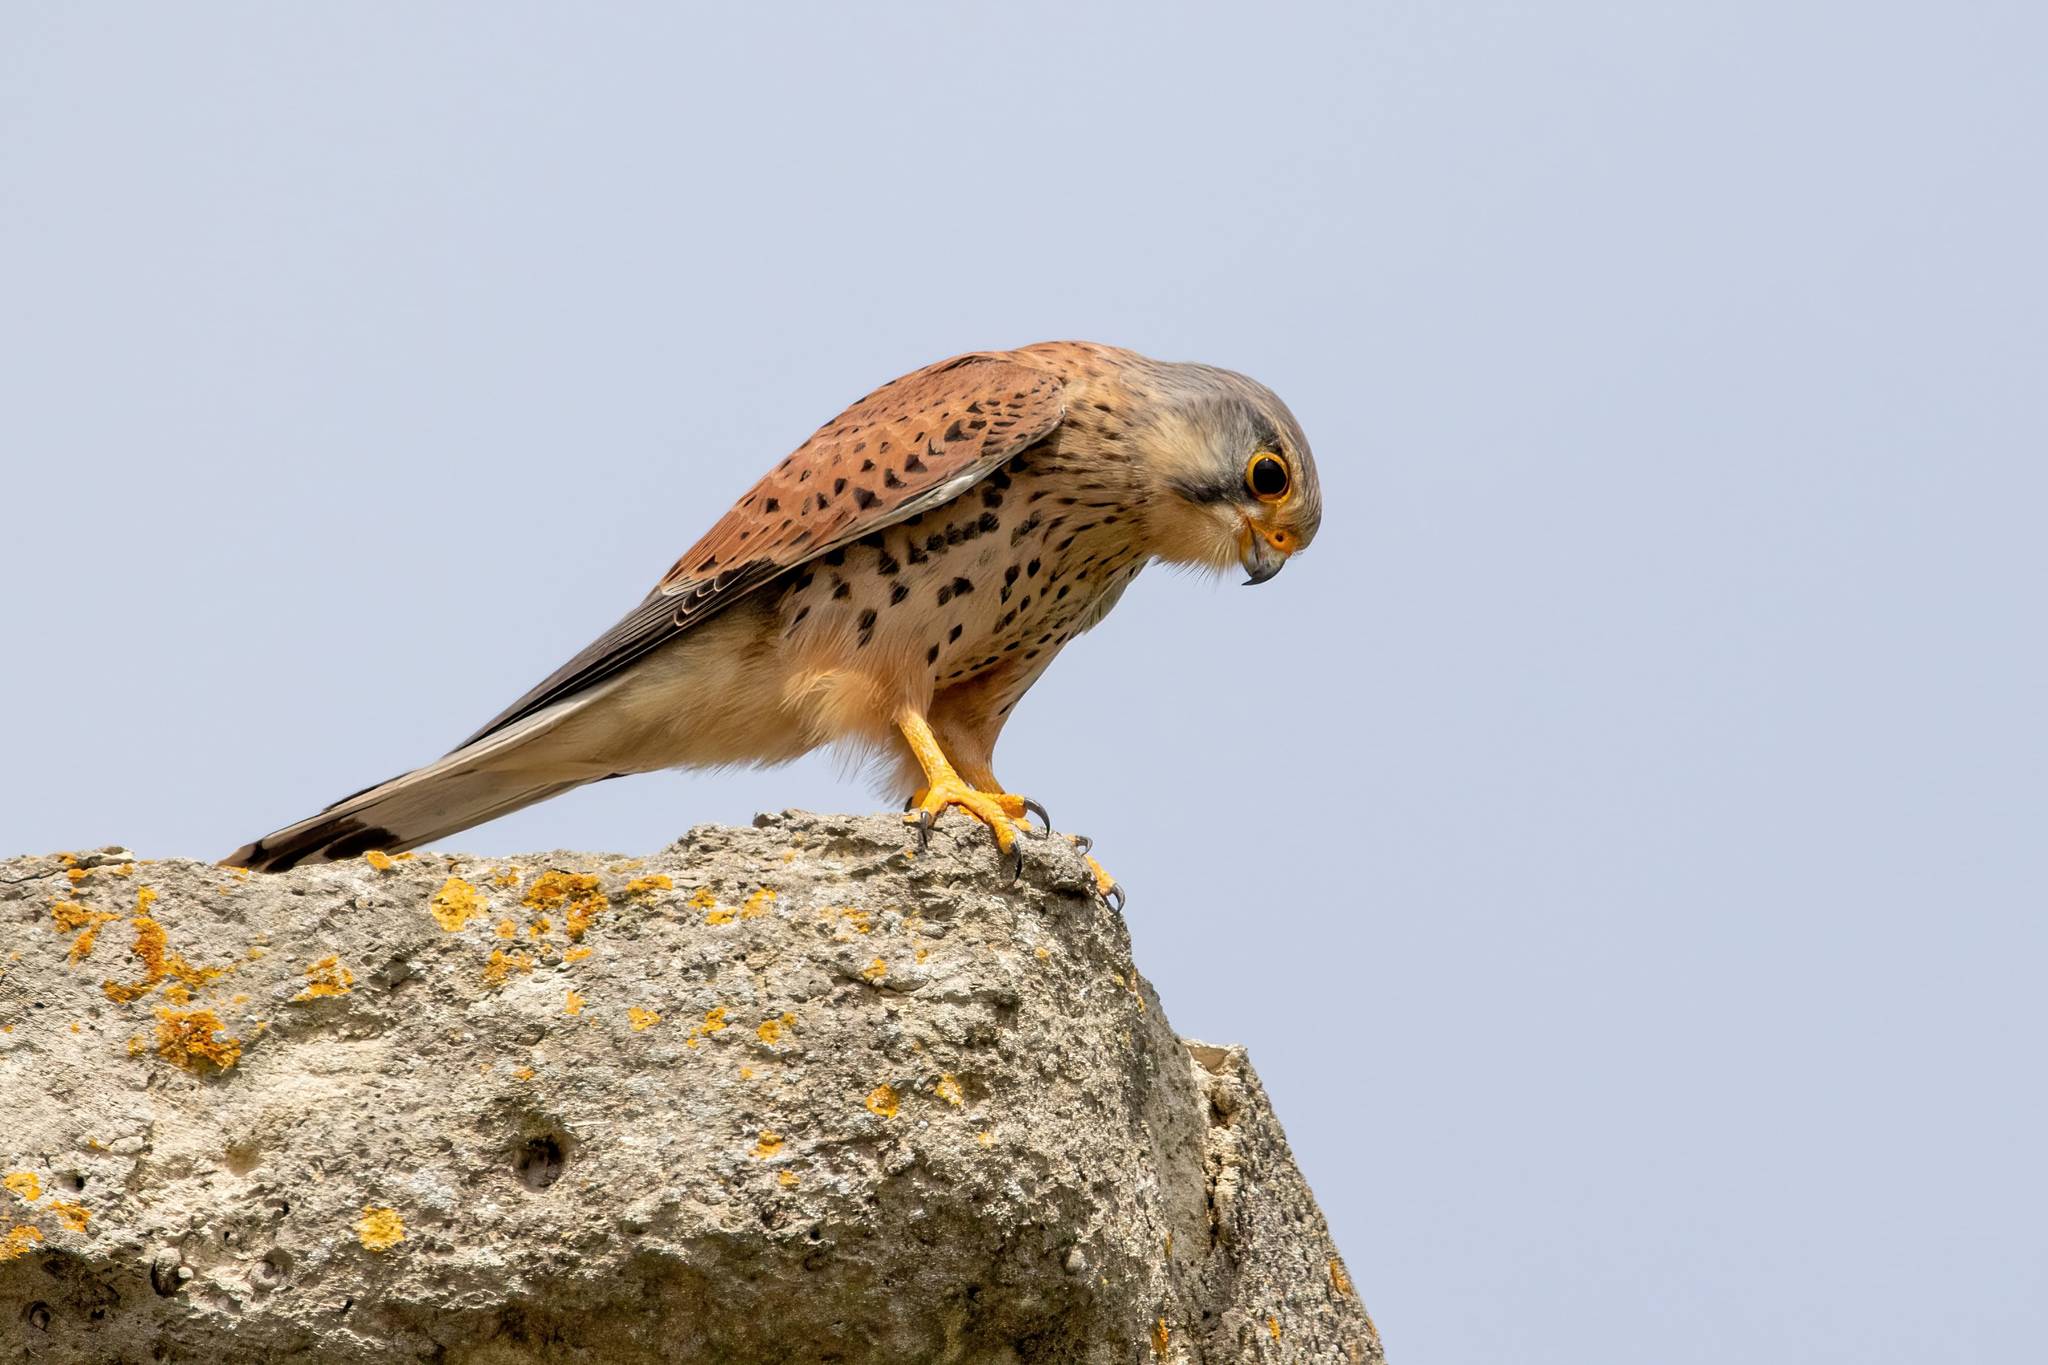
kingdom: Animalia
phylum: Chordata
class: Aves
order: Falconiformes
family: Falconidae
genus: Falco
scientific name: Falco tinnunculus
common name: Common kestrel
